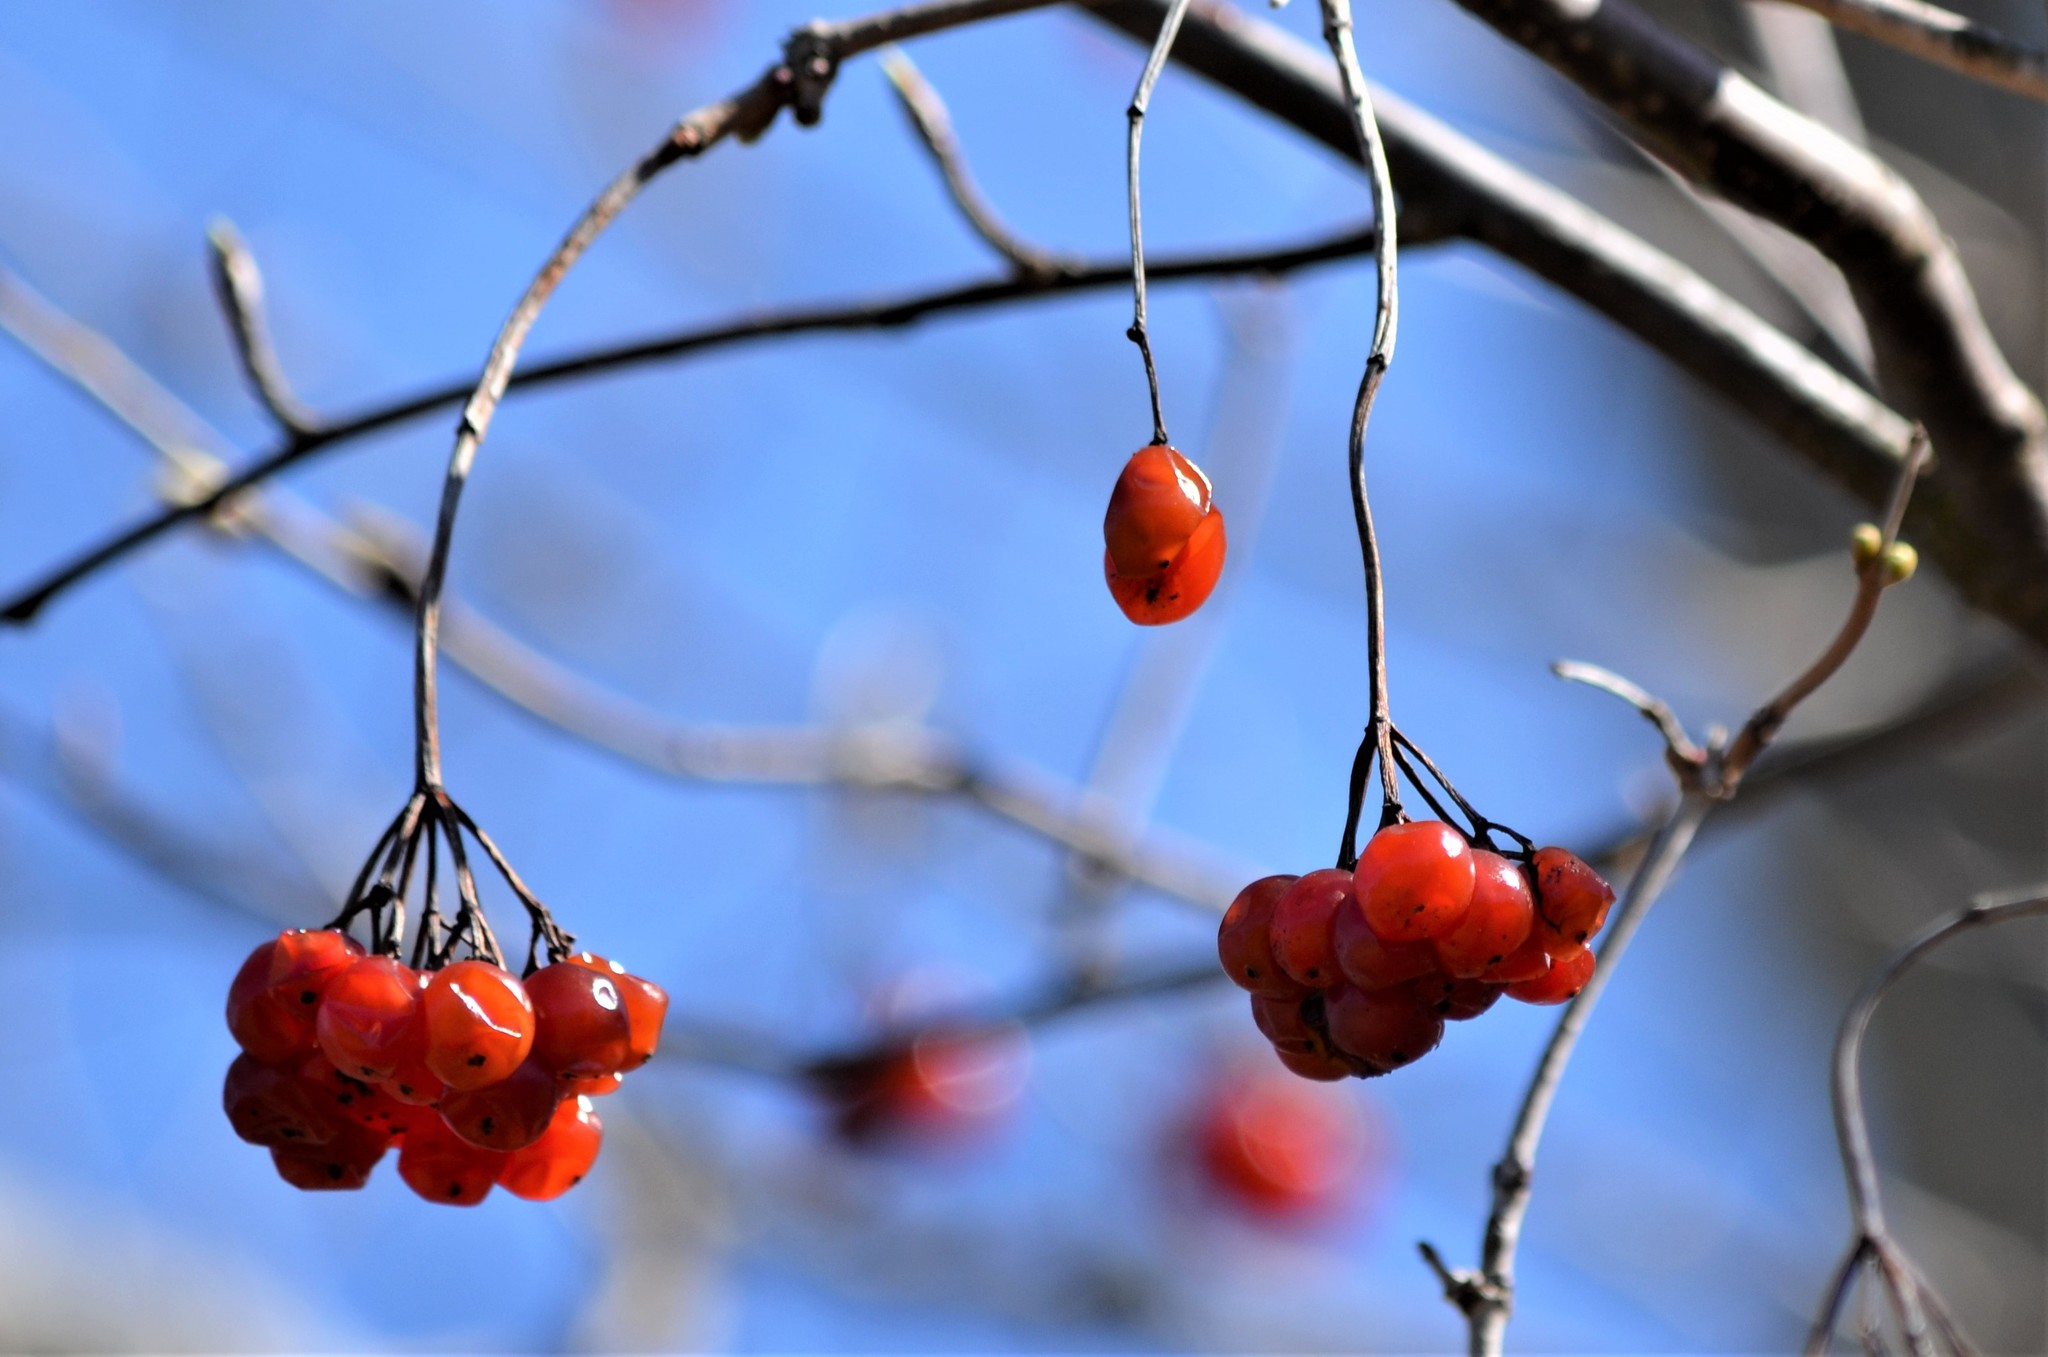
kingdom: Plantae
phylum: Tracheophyta
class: Magnoliopsida
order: Dipsacales
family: Viburnaceae
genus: Viburnum
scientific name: Viburnum opulus
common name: Guelder-rose
